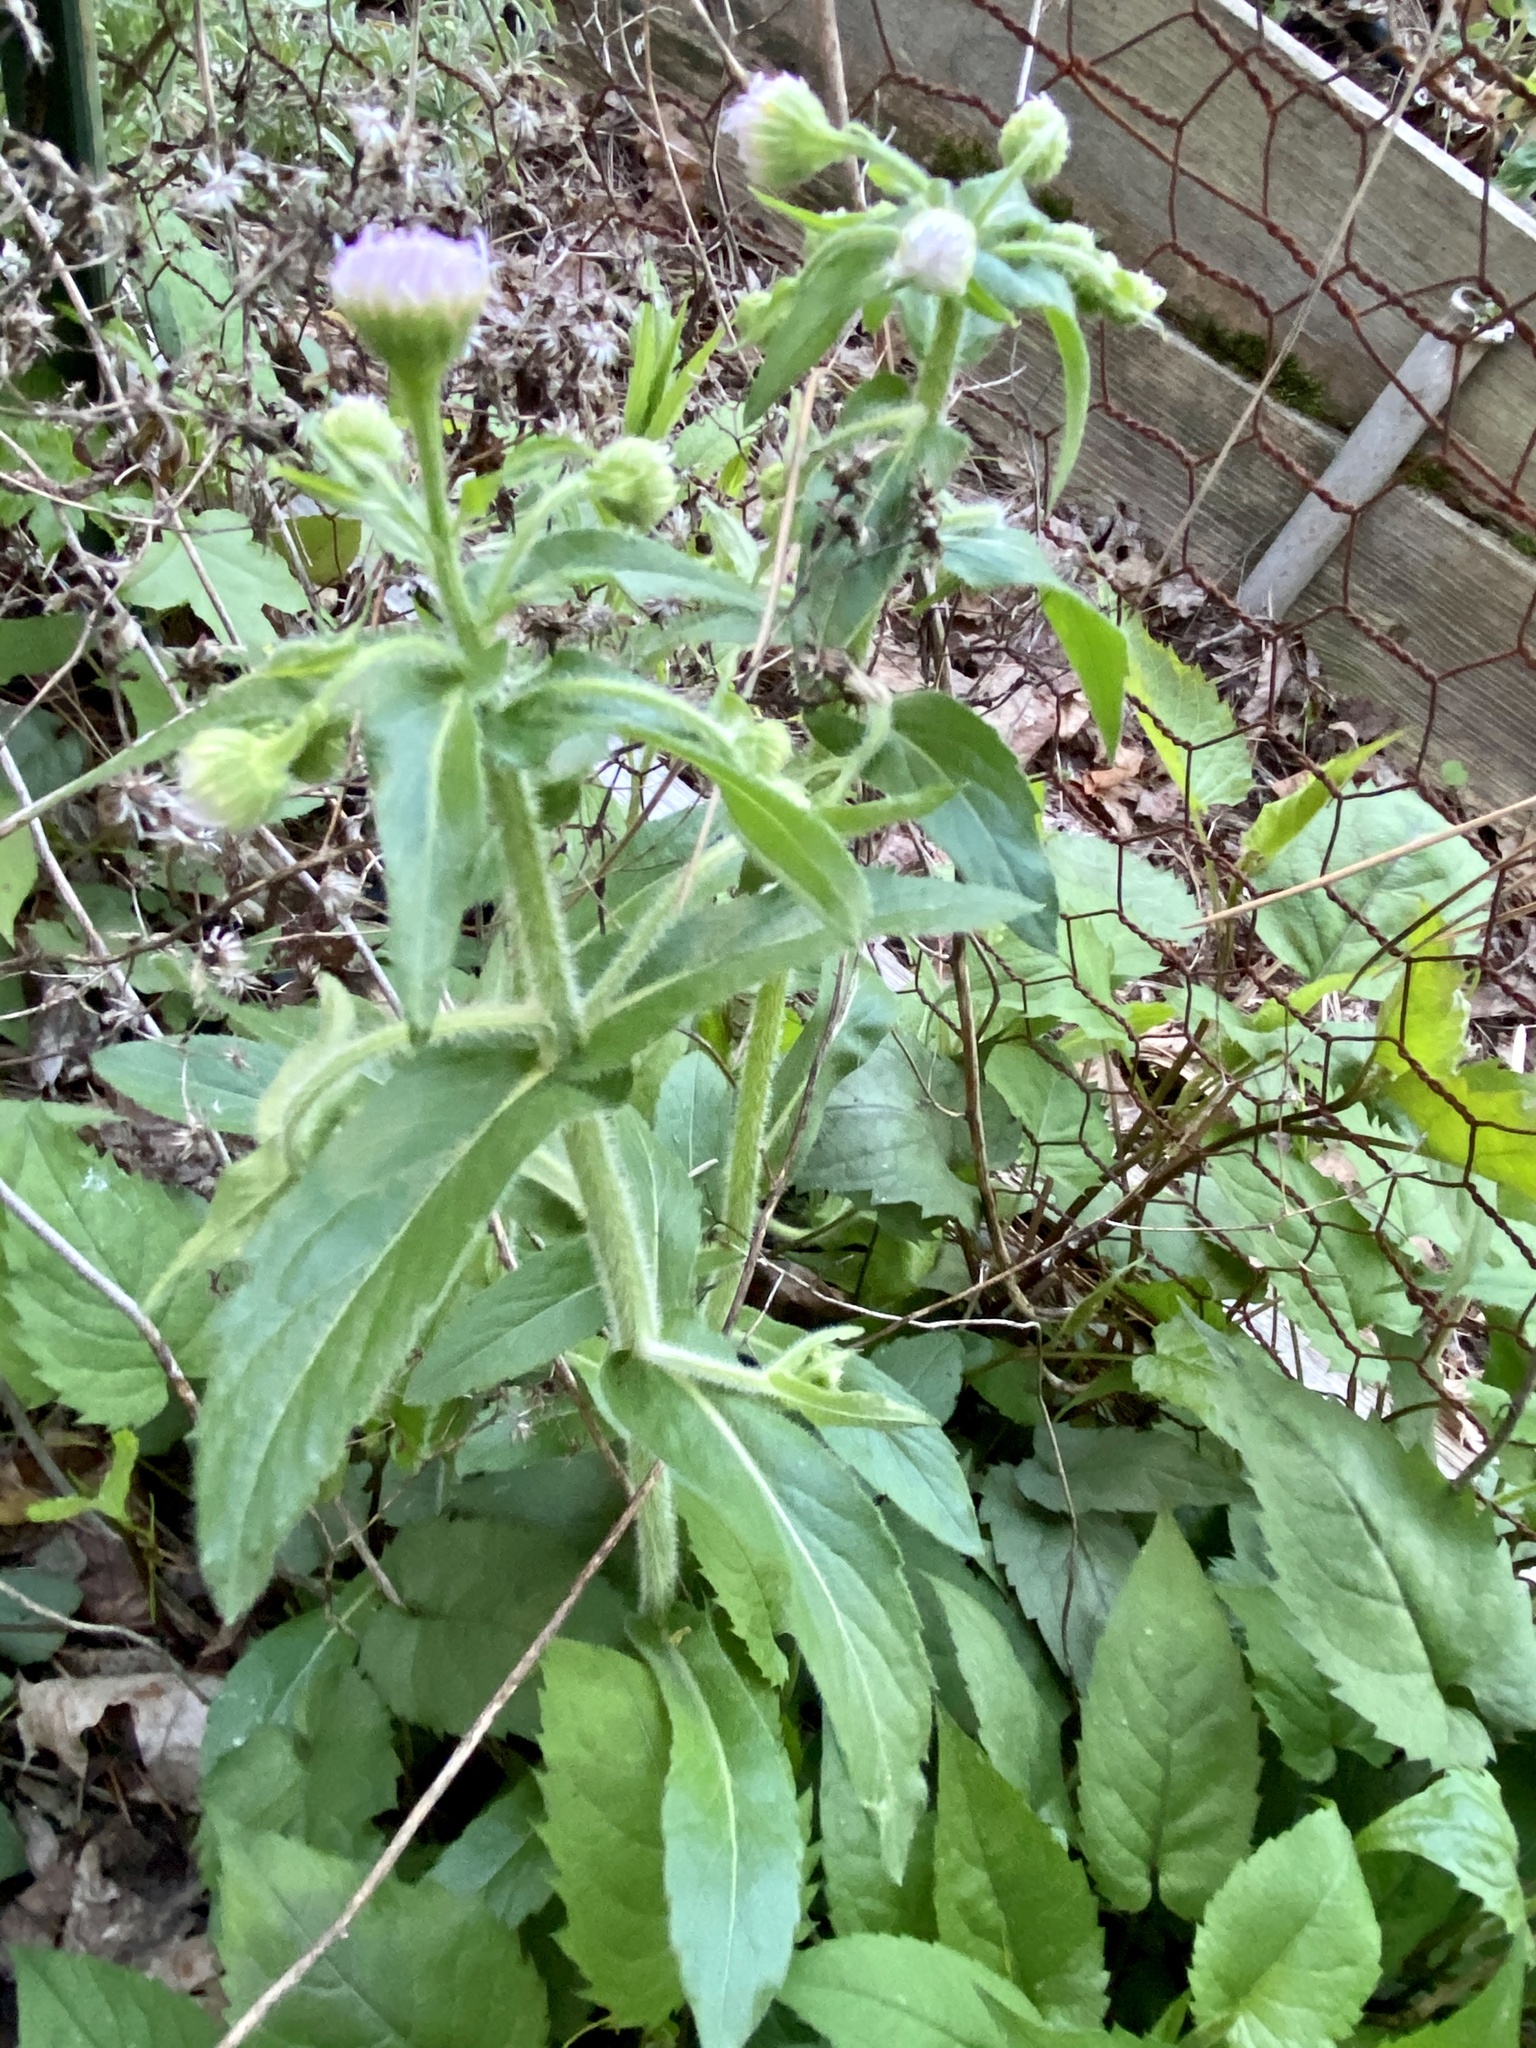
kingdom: Plantae
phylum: Tracheophyta
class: Magnoliopsida
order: Asterales
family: Asteraceae
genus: Erigeron
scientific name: Erigeron philadelphicus
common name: Robin's-plantain
